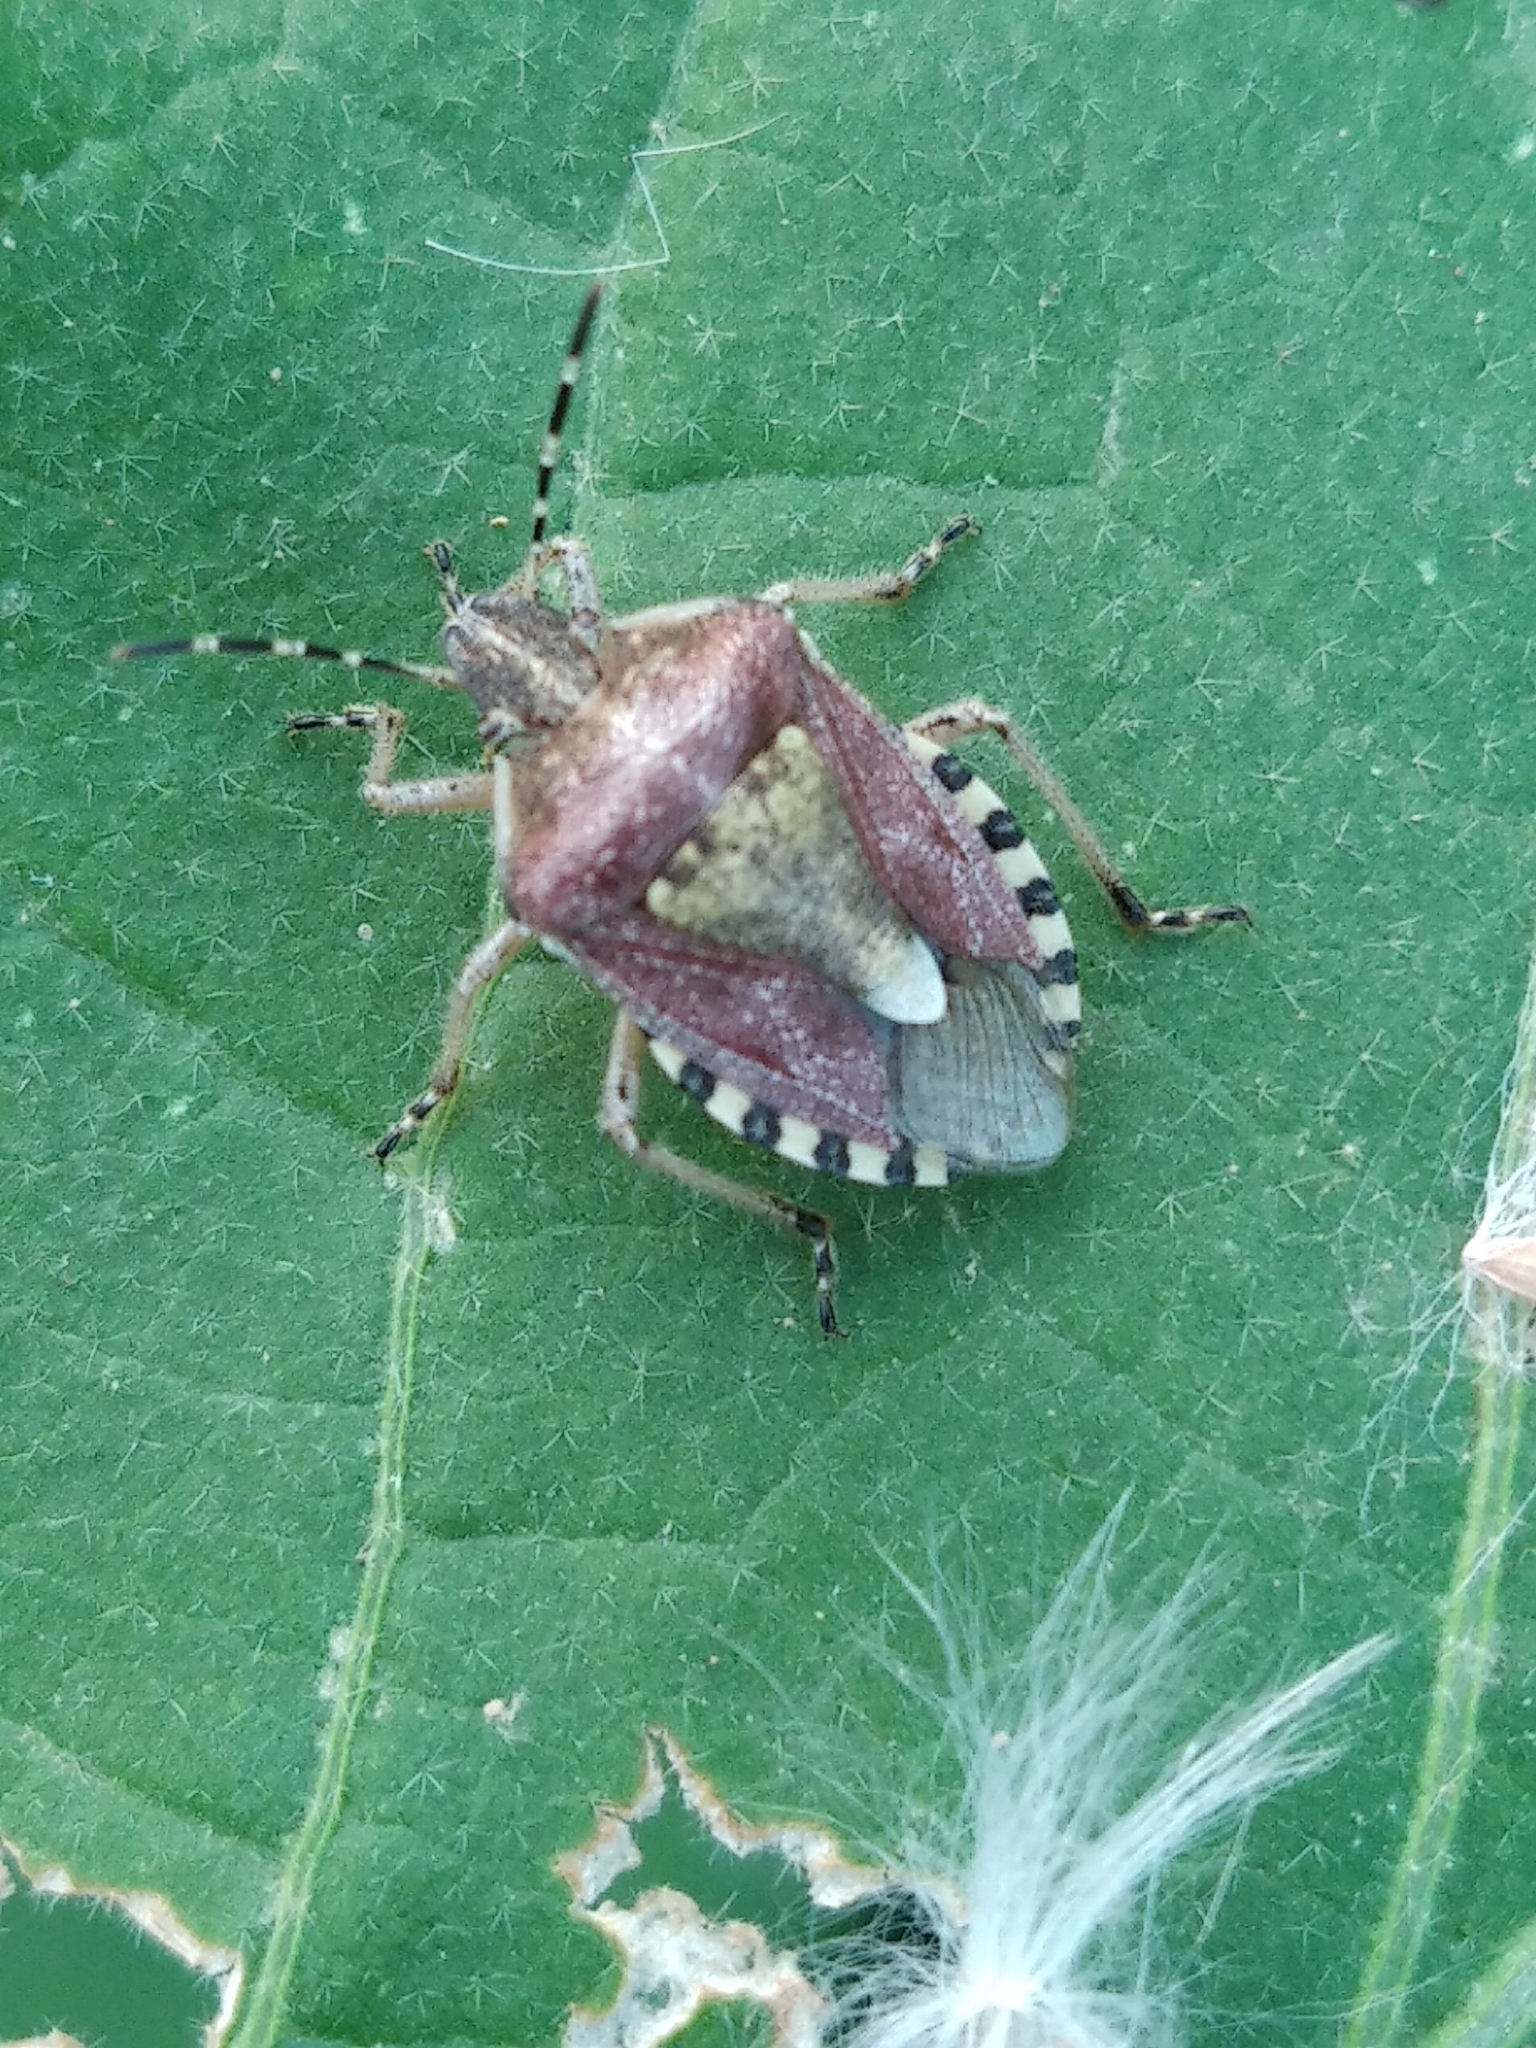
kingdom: Animalia
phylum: Arthropoda
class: Insecta
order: Hemiptera
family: Pentatomidae
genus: Dolycoris
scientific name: Dolycoris baccarum
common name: Sloe bug
